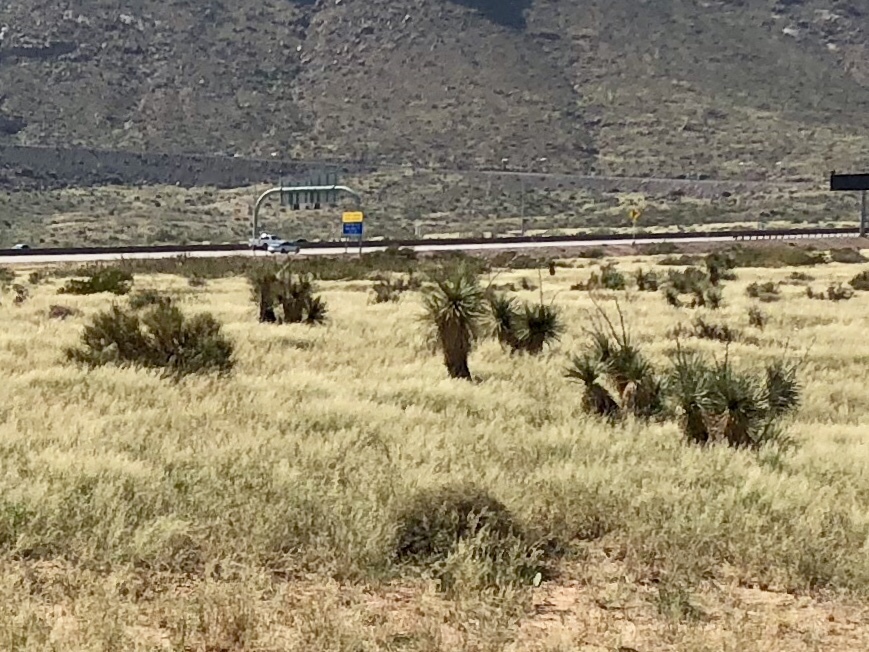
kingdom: Plantae
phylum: Tracheophyta
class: Liliopsida
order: Asparagales
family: Asparagaceae
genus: Yucca
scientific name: Yucca elata
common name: Palmella
